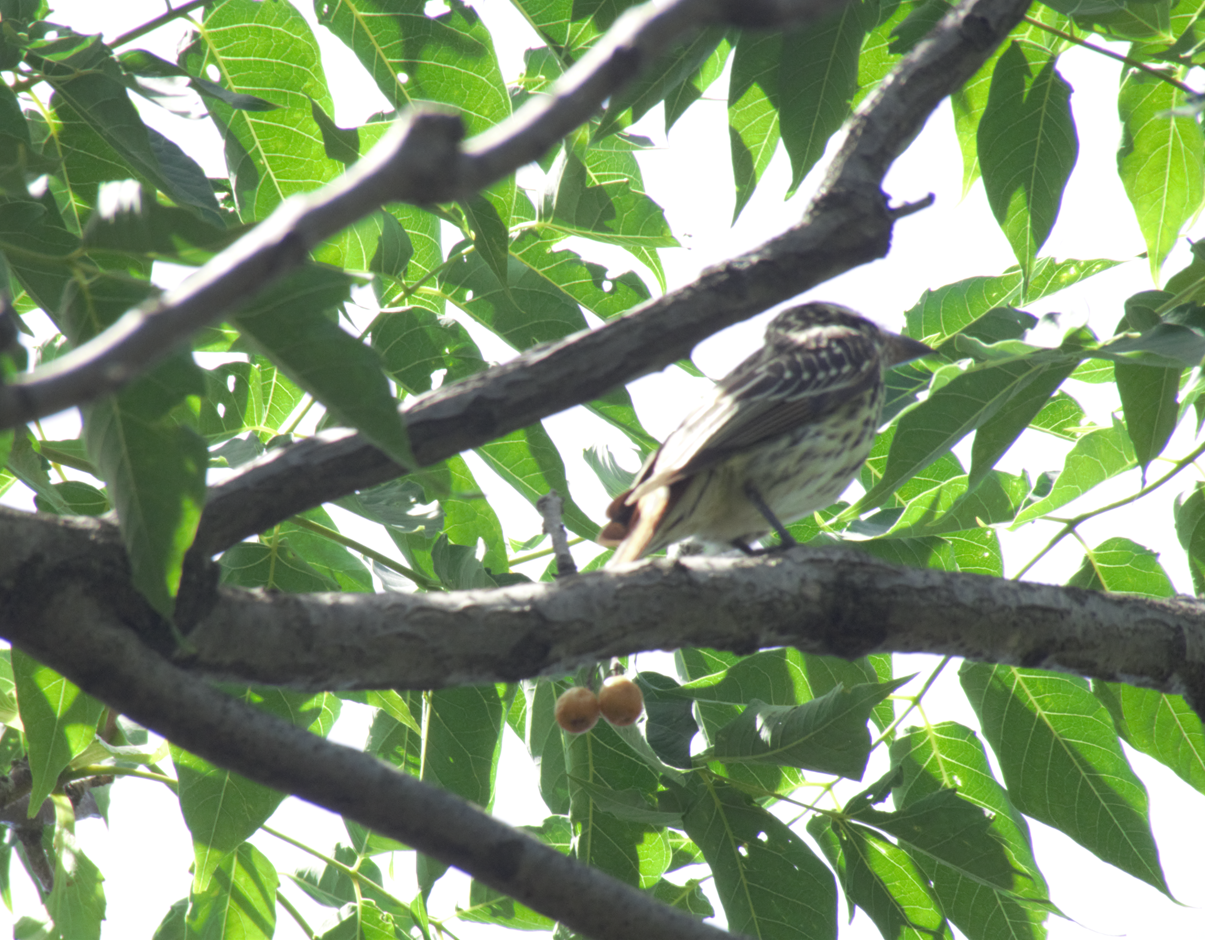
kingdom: Animalia
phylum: Chordata
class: Aves
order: Passeriformes
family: Tyrannidae
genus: Myiodynastes
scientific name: Myiodynastes maculatus
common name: Streaked flycatcher
